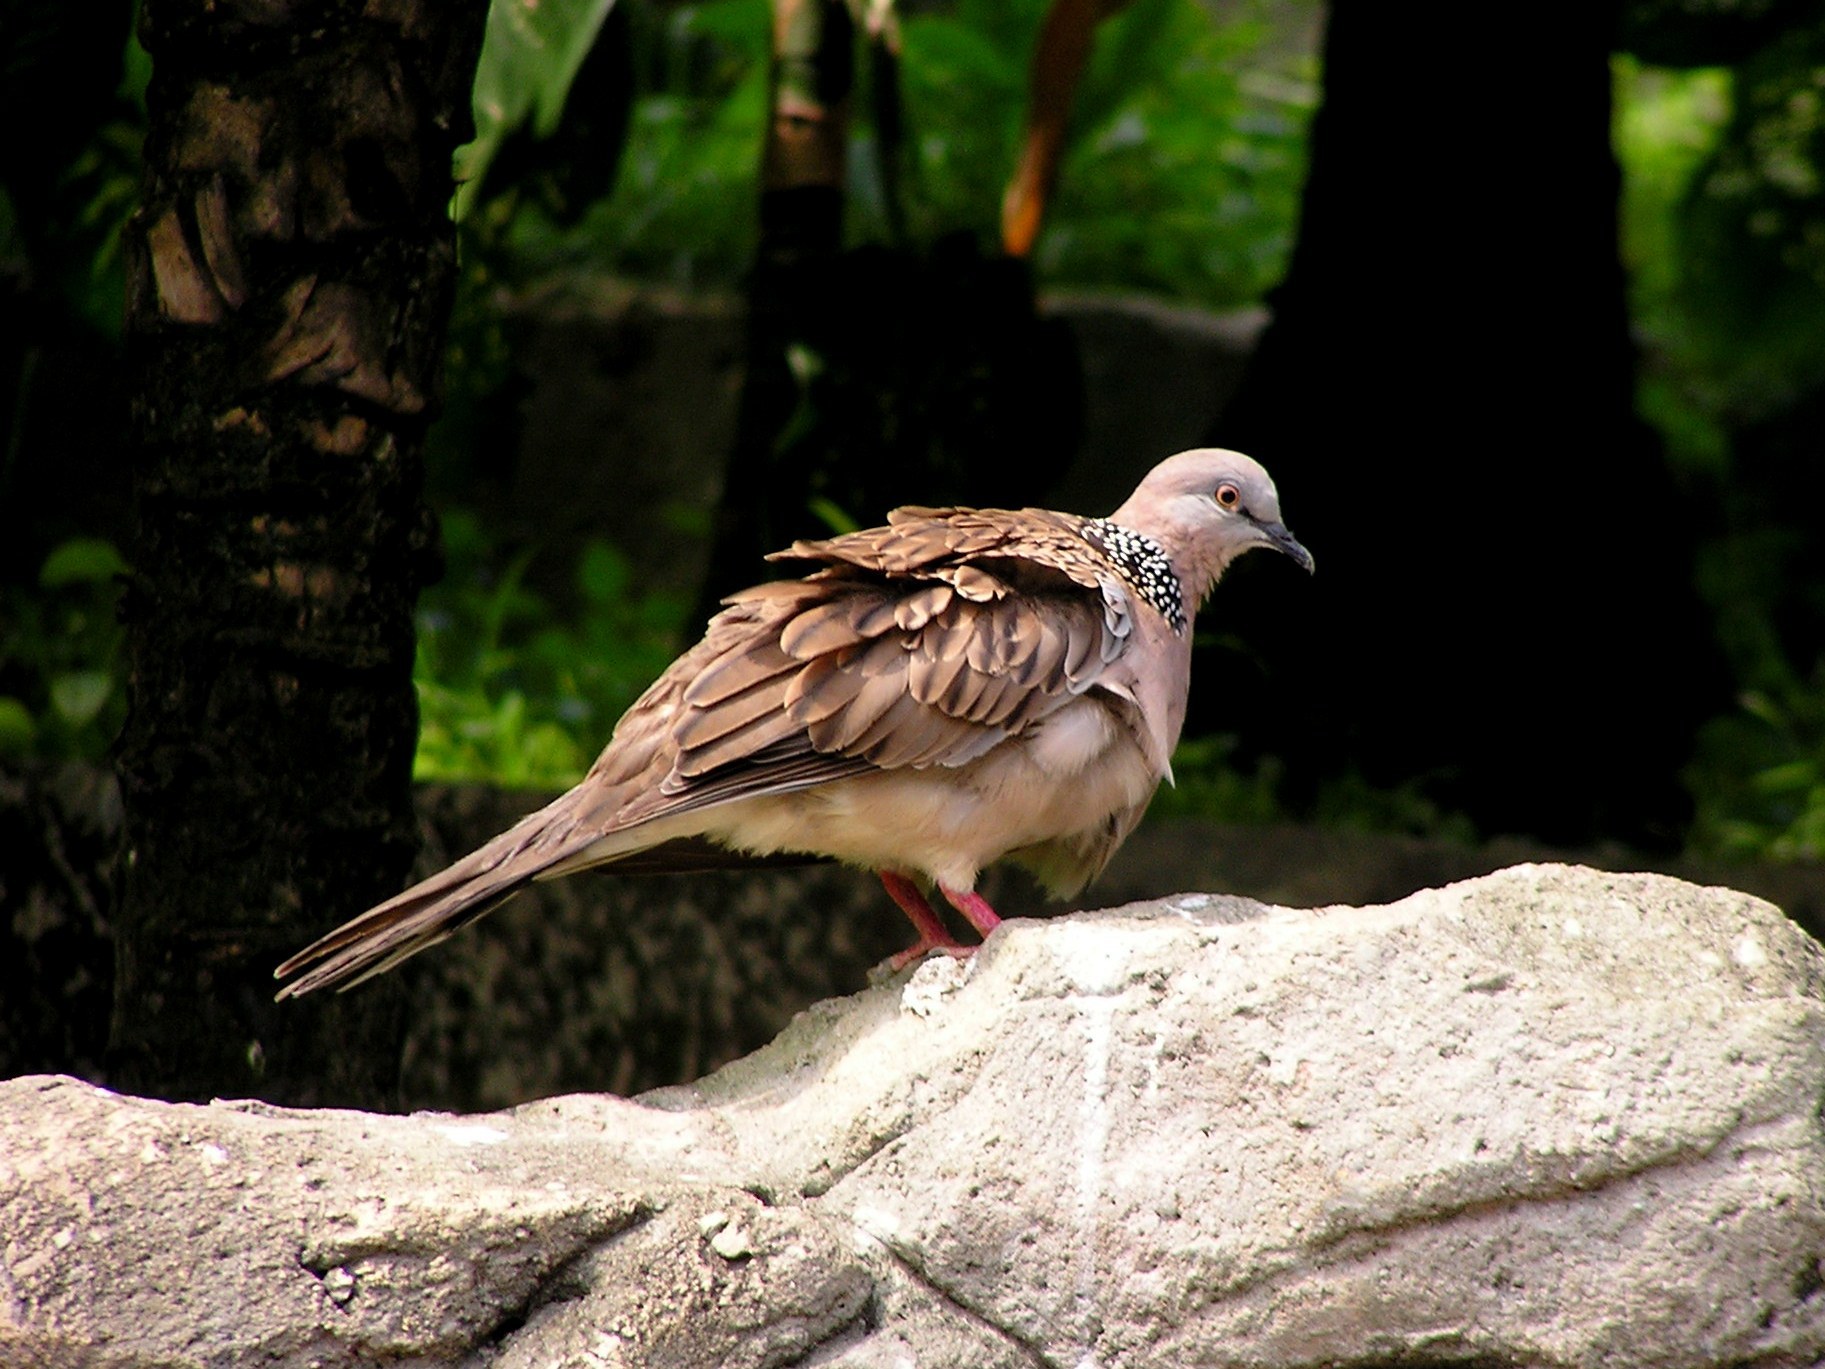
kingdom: Animalia
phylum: Chordata
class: Aves
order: Columbiformes
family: Columbidae
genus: Spilopelia
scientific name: Spilopelia chinensis
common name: Spotted dove
